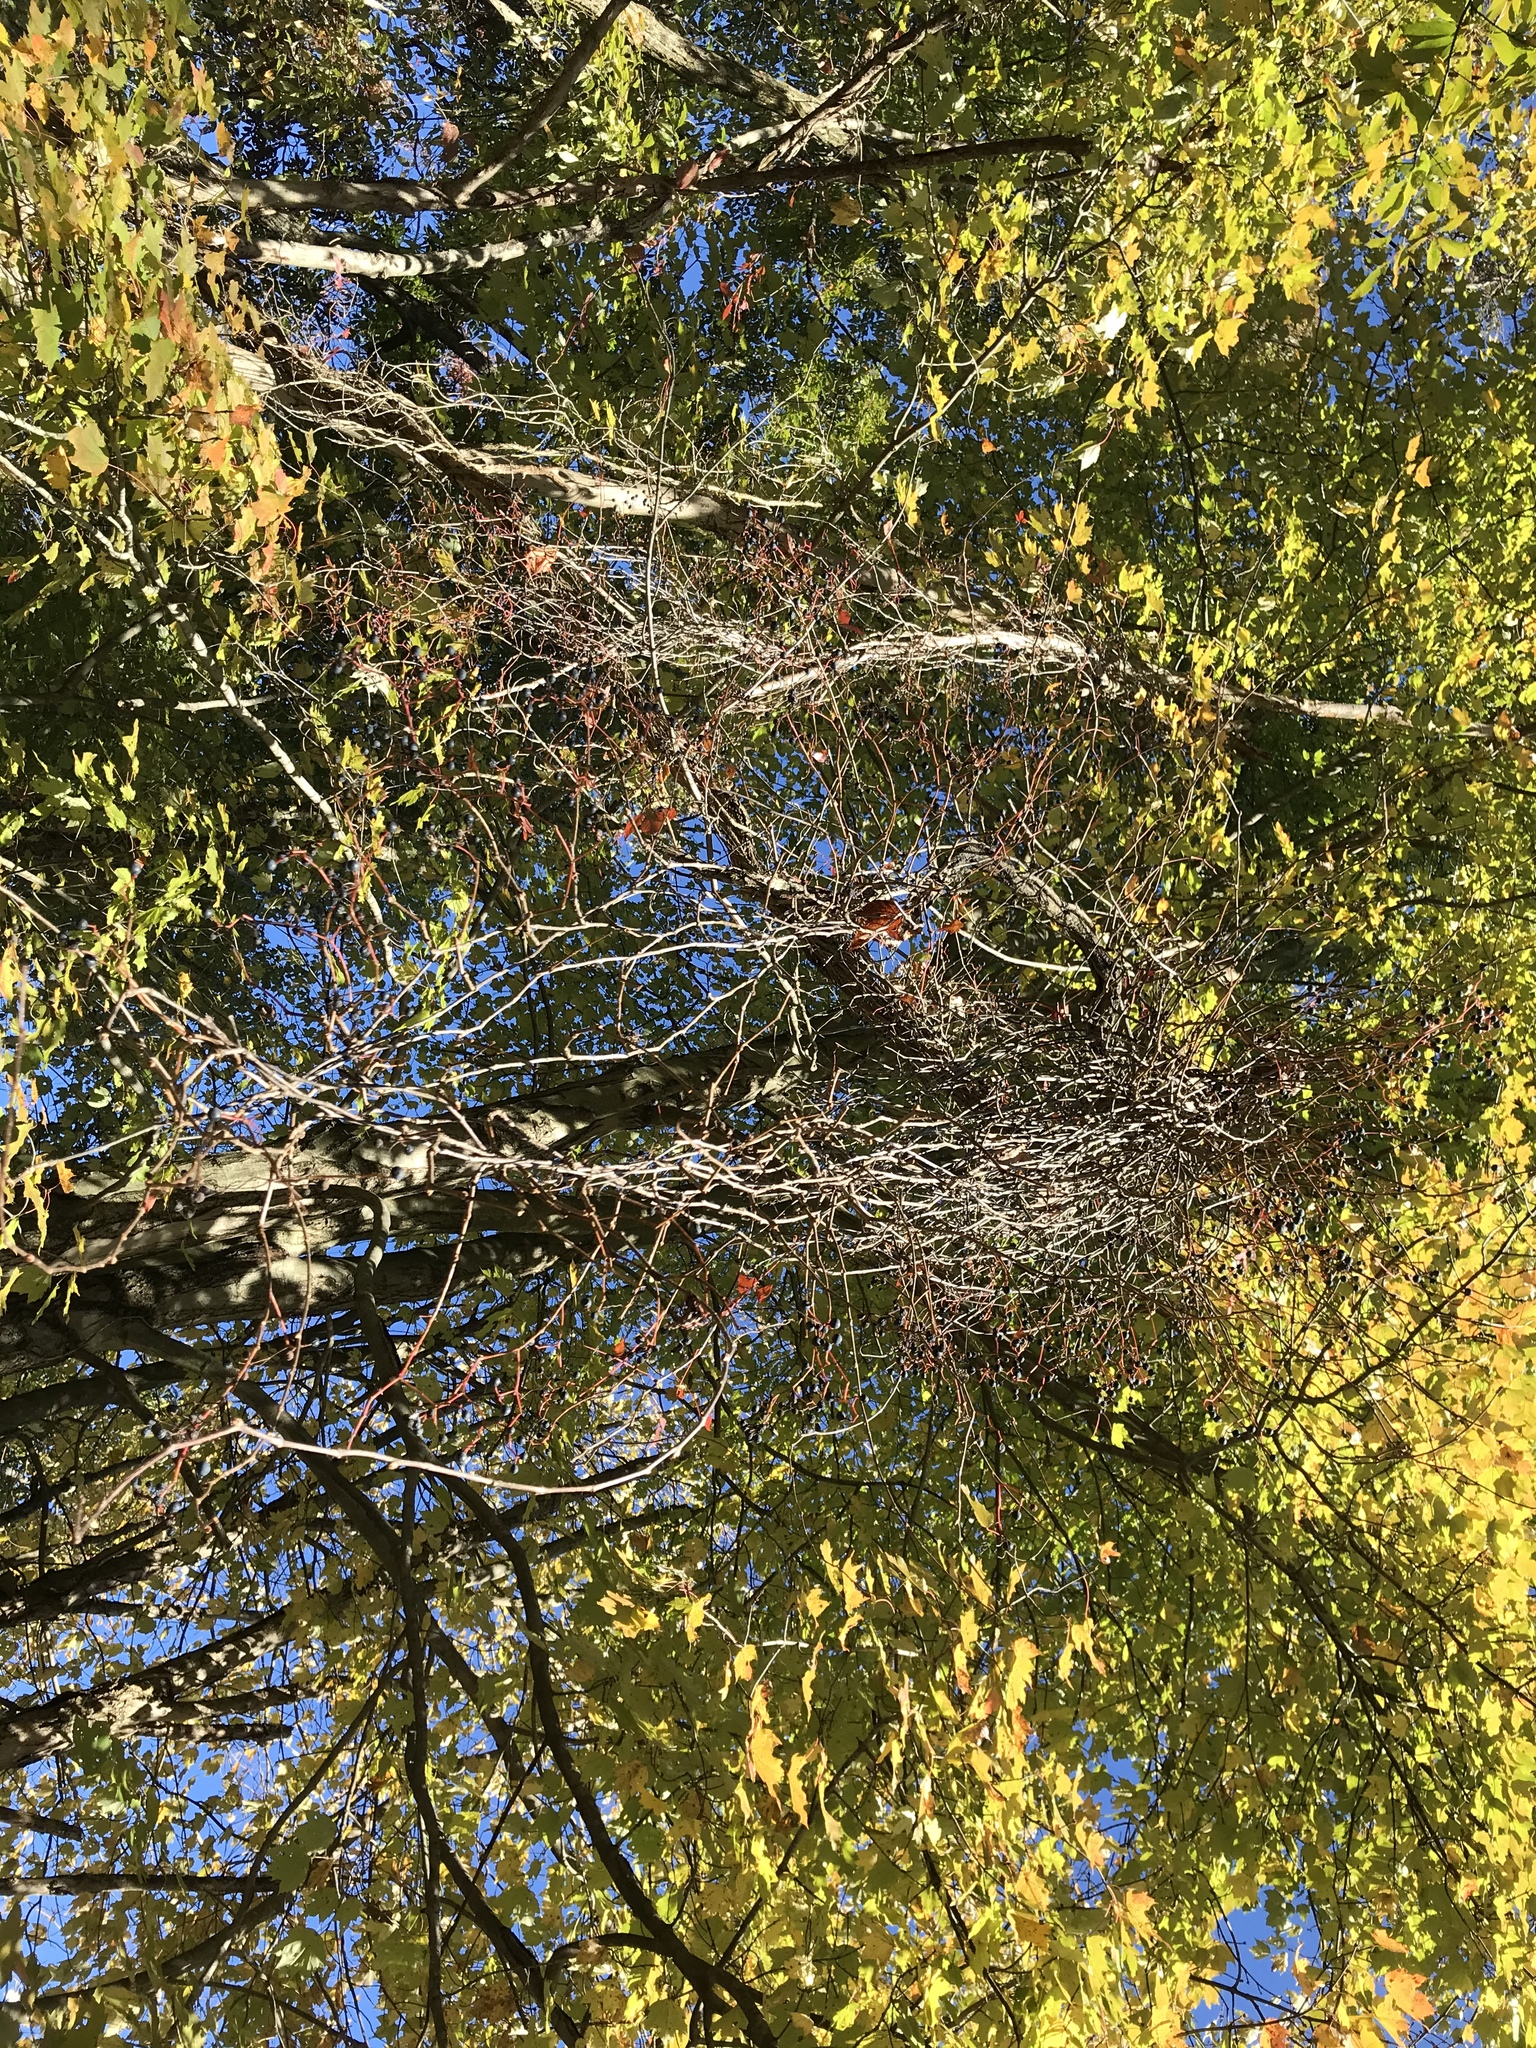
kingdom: Plantae
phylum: Tracheophyta
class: Magnoliopsida
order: Vitales
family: Vitaceae
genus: Parthenocissus
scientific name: Parthenocissus quinquefolia
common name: Virginia-creeper
